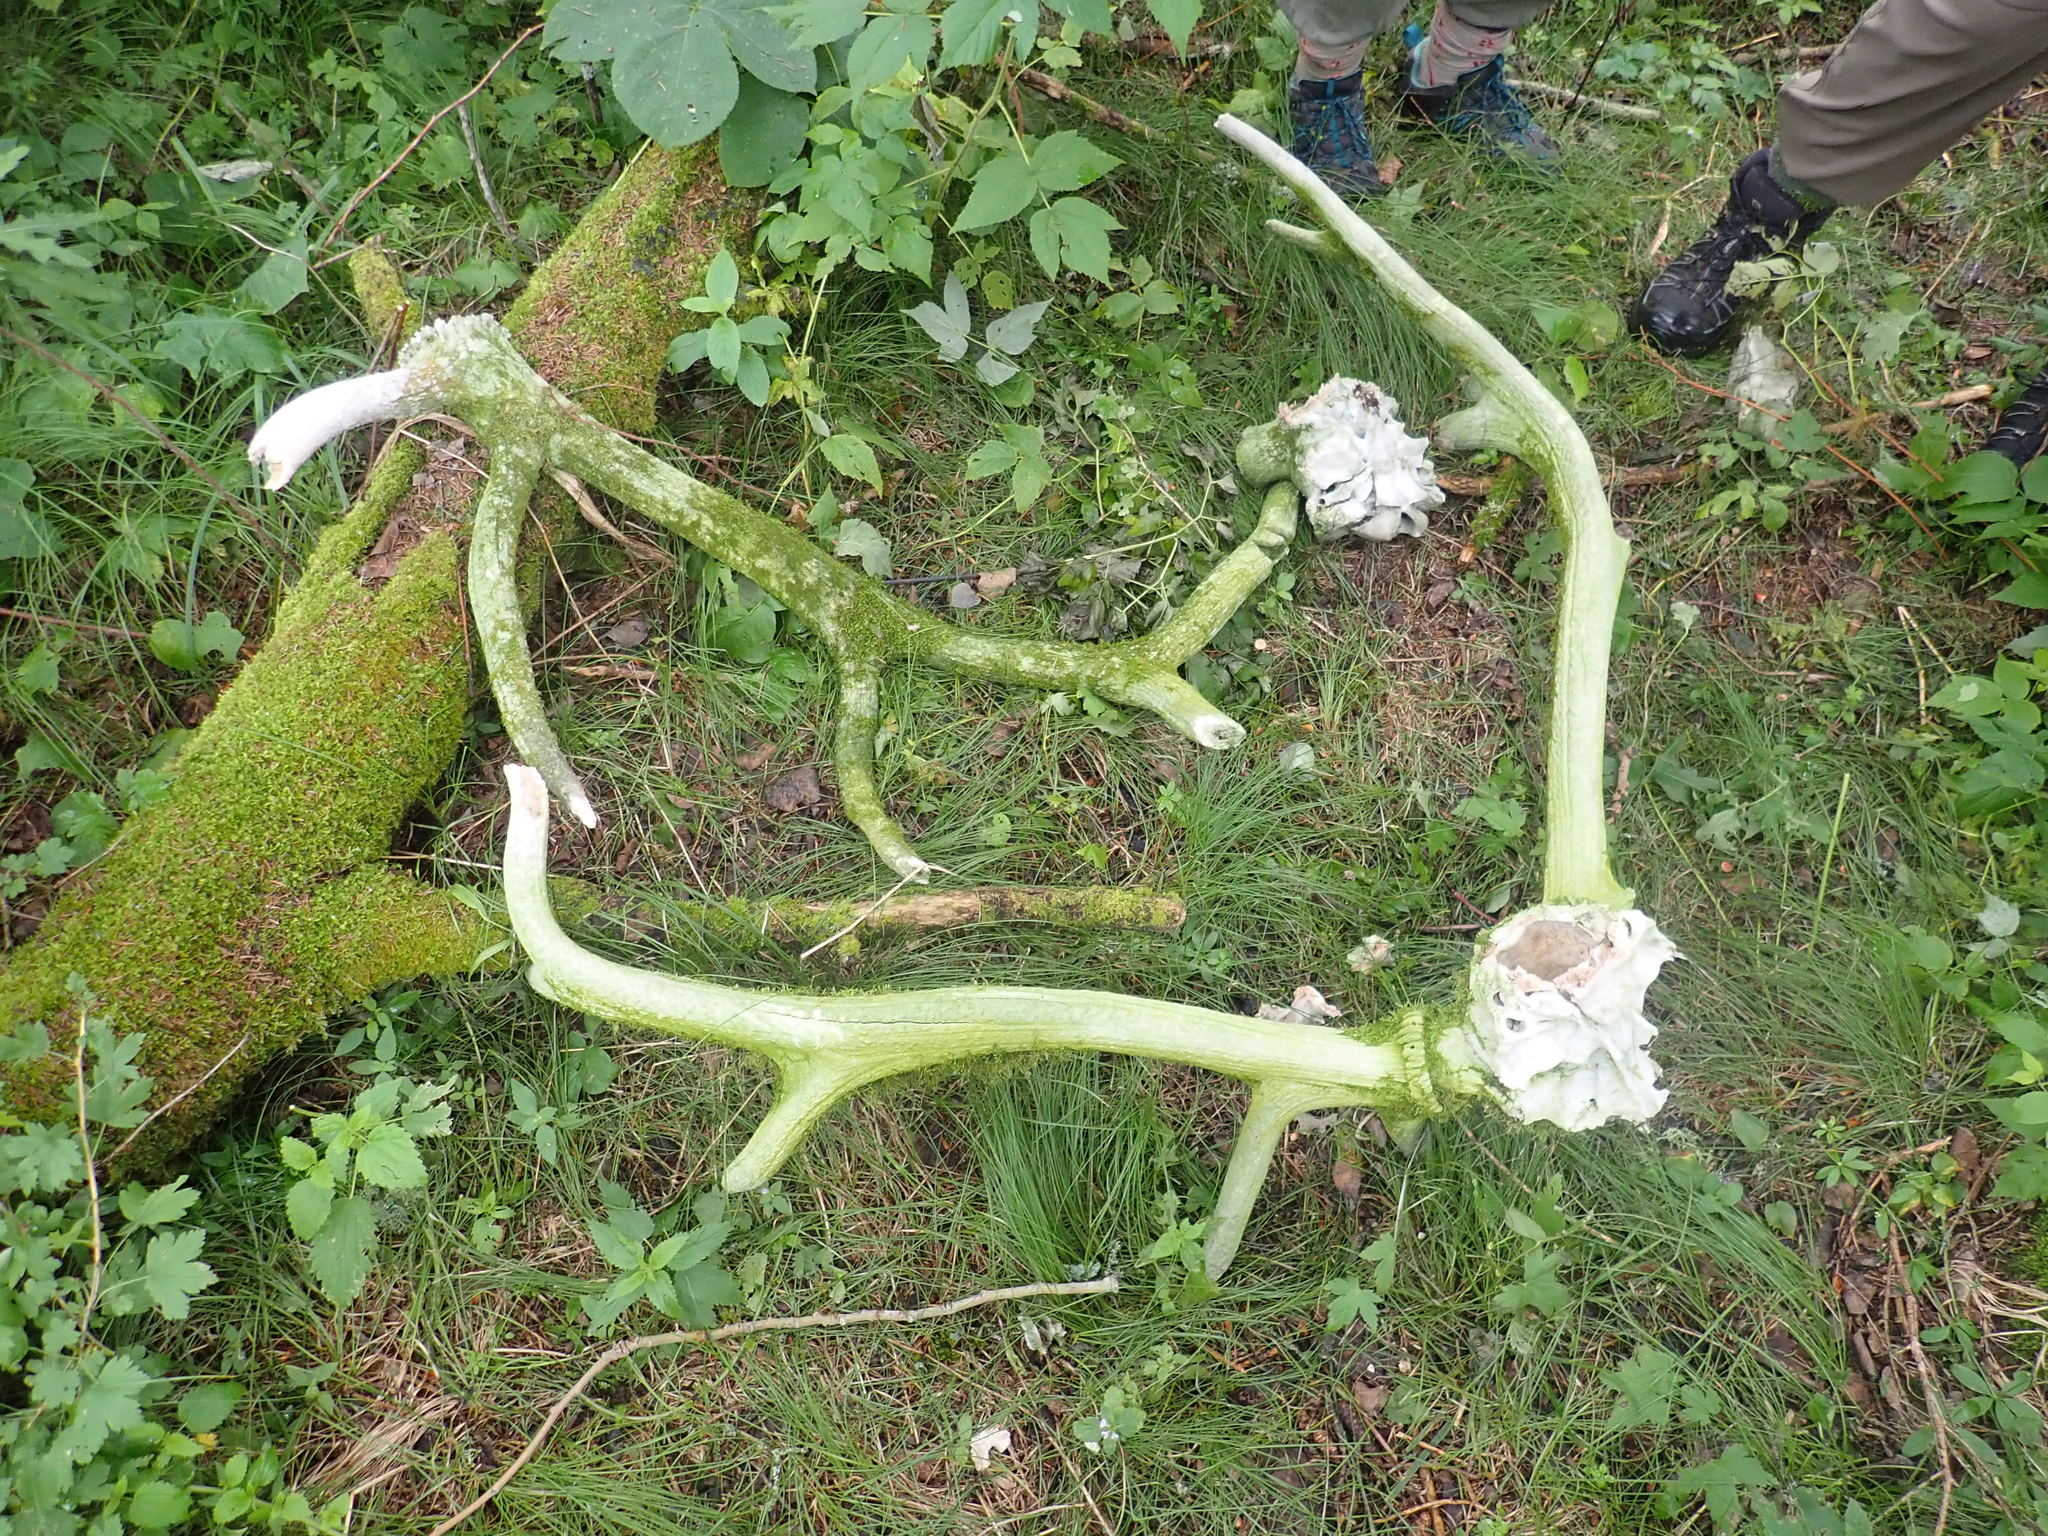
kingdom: Animalia
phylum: Chordata
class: Mammalia
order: Artiodactyla
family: Cervidae
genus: Cervus
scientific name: Cervus elaphus
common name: Red deer
